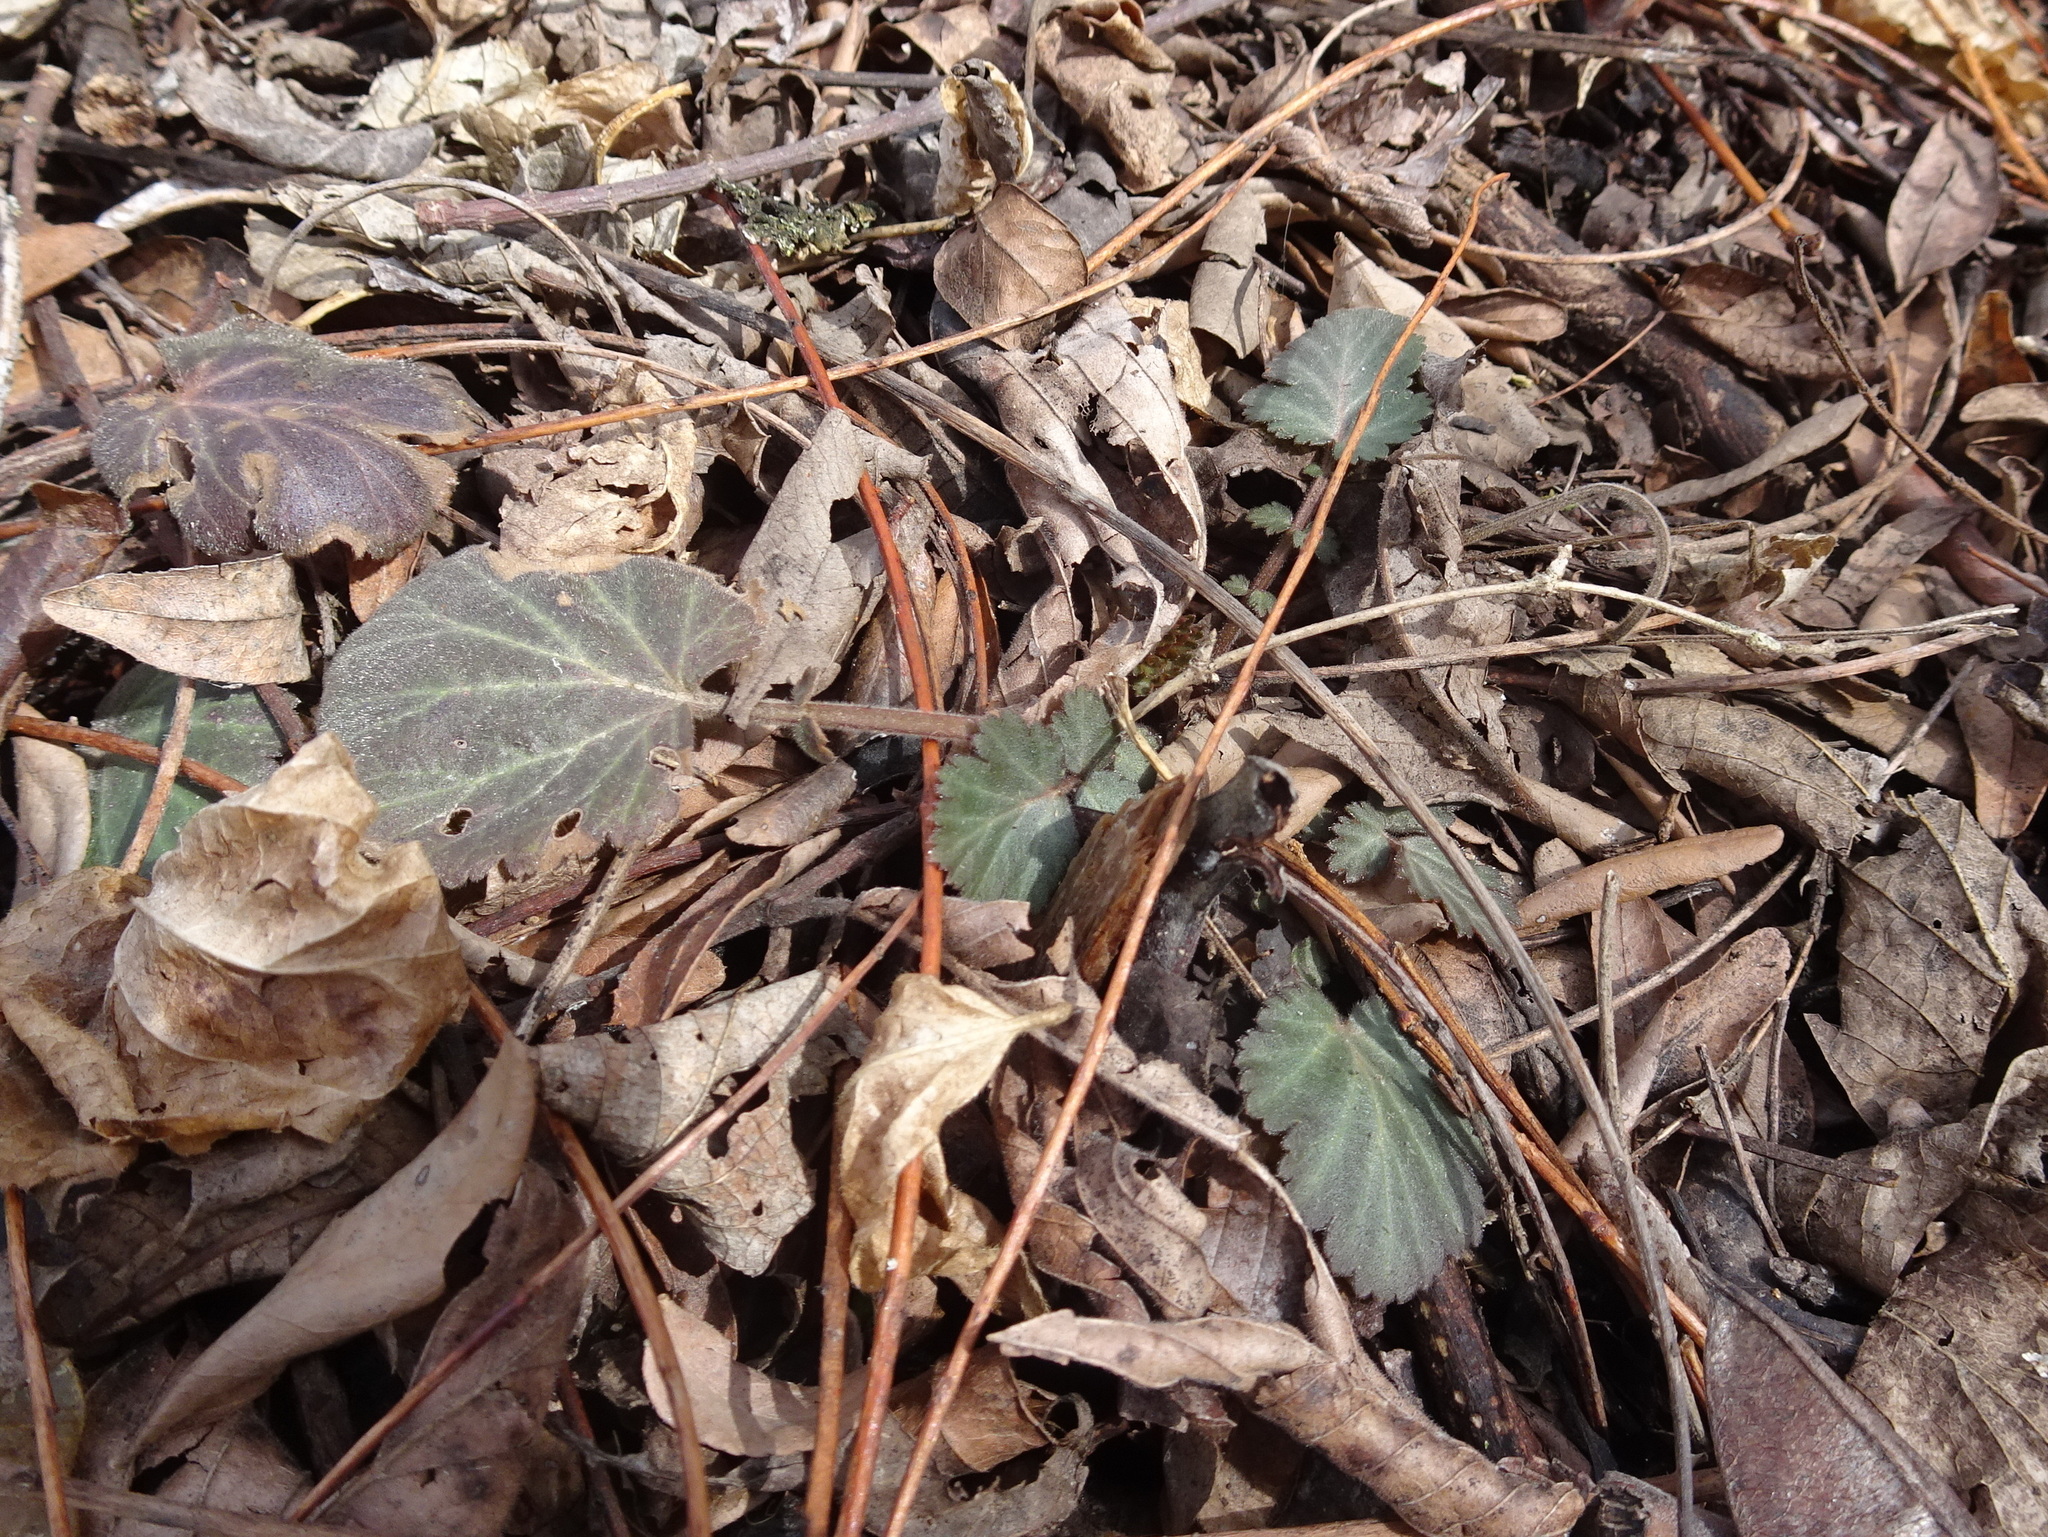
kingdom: Plantae
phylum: Tracheophyta
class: Magnoliopsida
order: Rosales
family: Rosaceae
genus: Geum
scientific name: Geum canadense
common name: White avens
